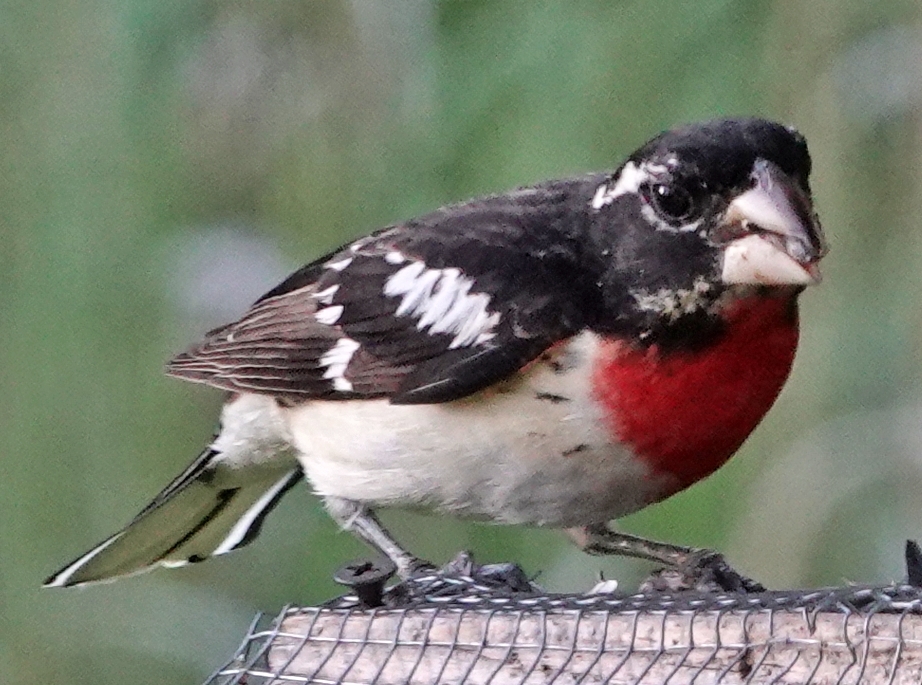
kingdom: Animalia
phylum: Chordata
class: Aves
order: Passeriformes
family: Cardinalidae
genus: Pheucticus
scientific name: Pheucticus ludovicianus
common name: Rose-breasted grosbeak
